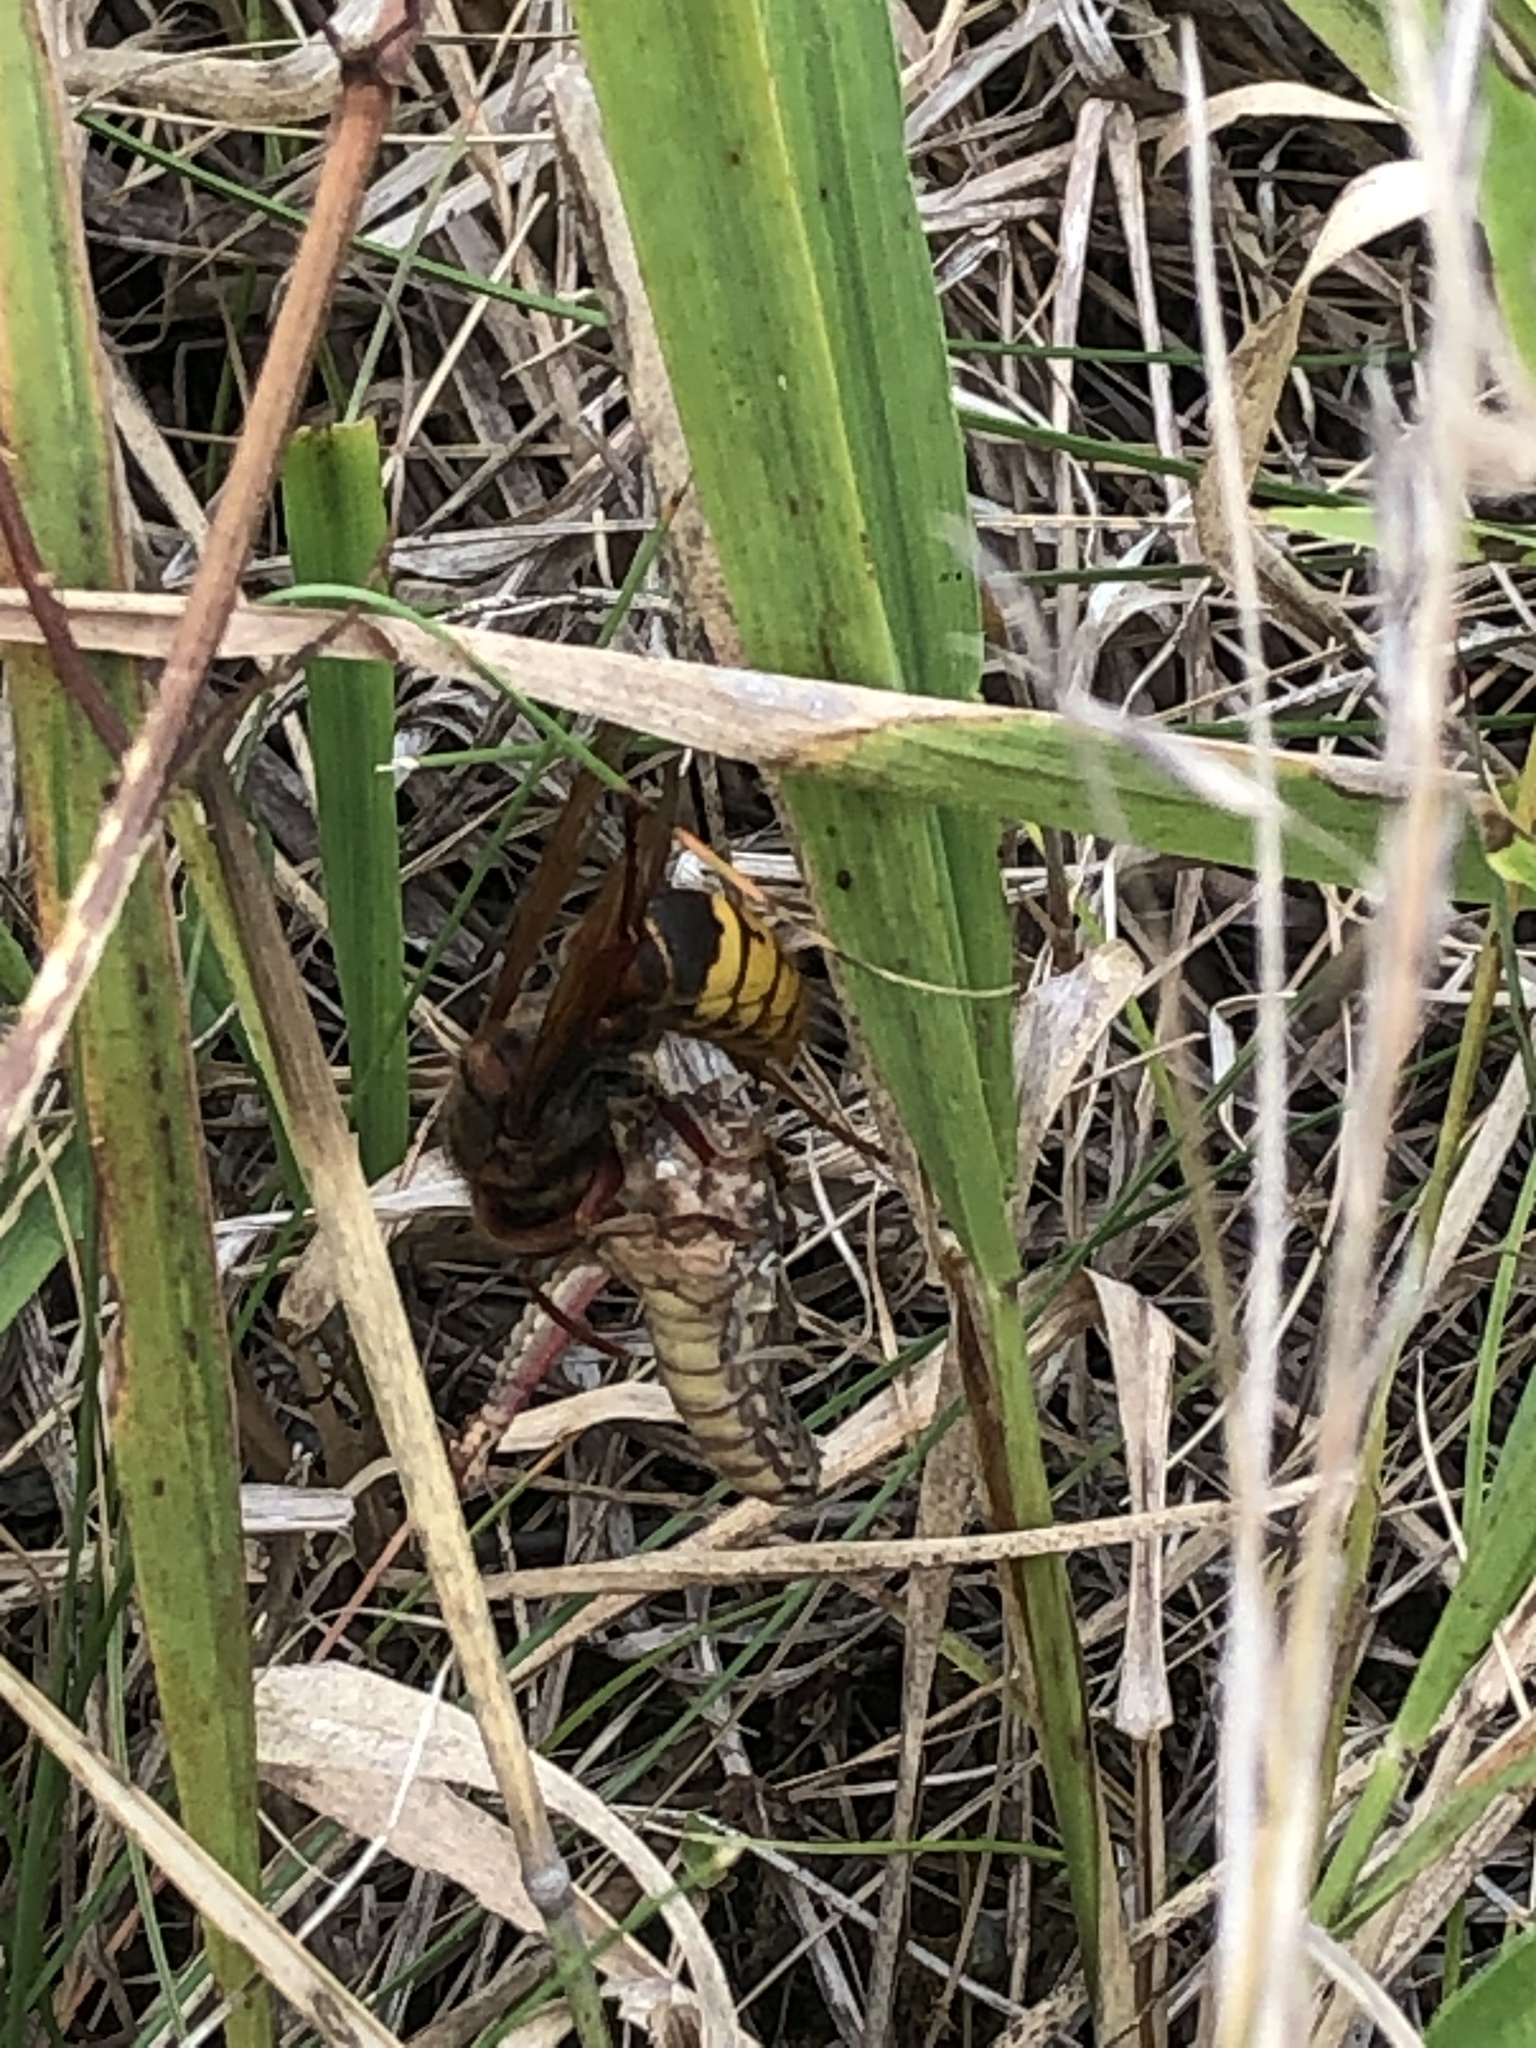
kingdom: Animalia
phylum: Arthropoda
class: Insecta
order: Hymenoptera
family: Vespidae
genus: Vespa
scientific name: Vespa crabro
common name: Hornet
